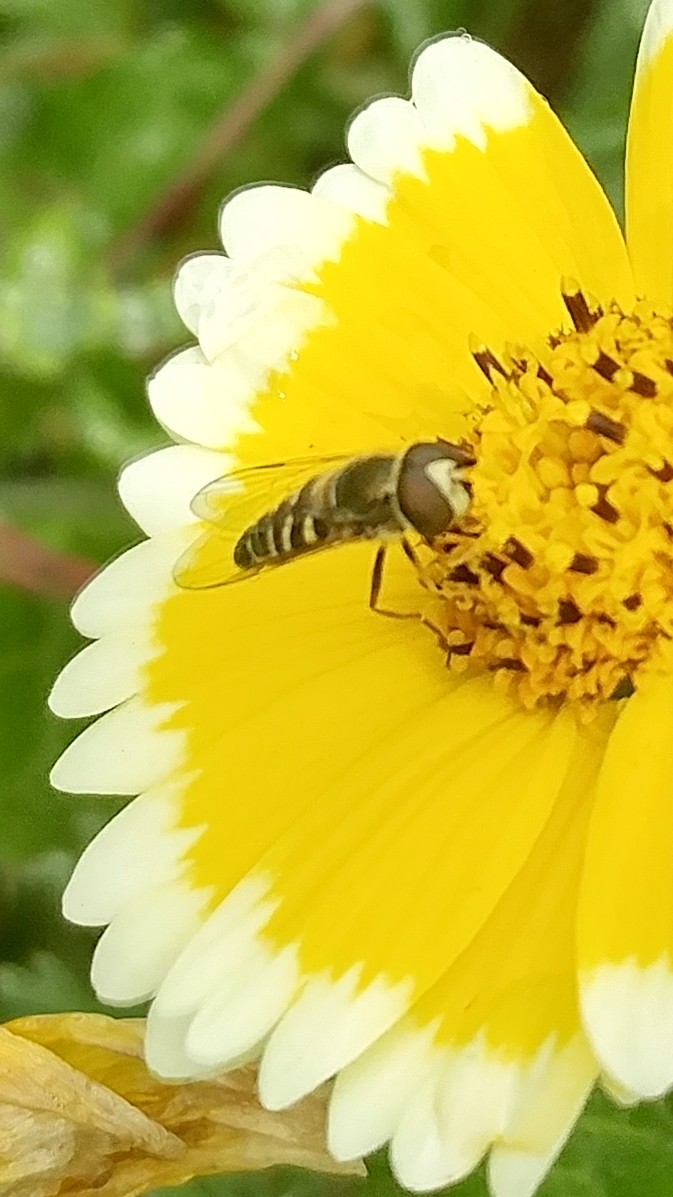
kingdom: Animalia
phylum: Arthropoda
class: Insecta
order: Diptera
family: Syrphidae
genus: Toxomerus
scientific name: Toxomerus marginatus
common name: Syrphid fly
